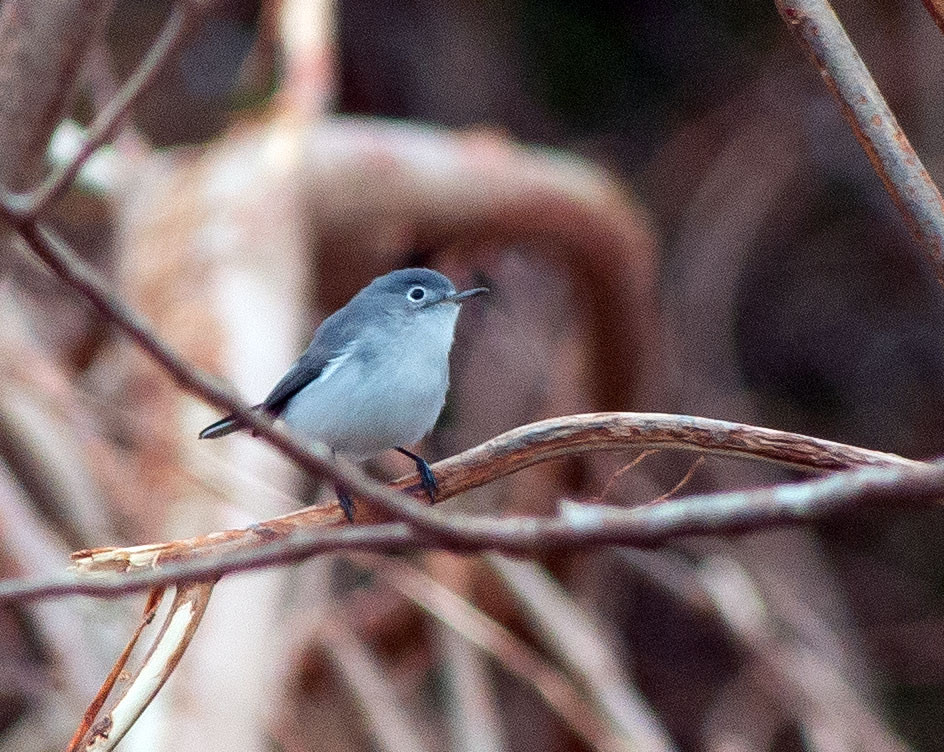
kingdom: Animalia
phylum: Chordata
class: Aves
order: Passeriformes
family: Polioptilidae
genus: Polioptila
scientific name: Polioptila caerulea
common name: Blue-gray gnatcatcher
